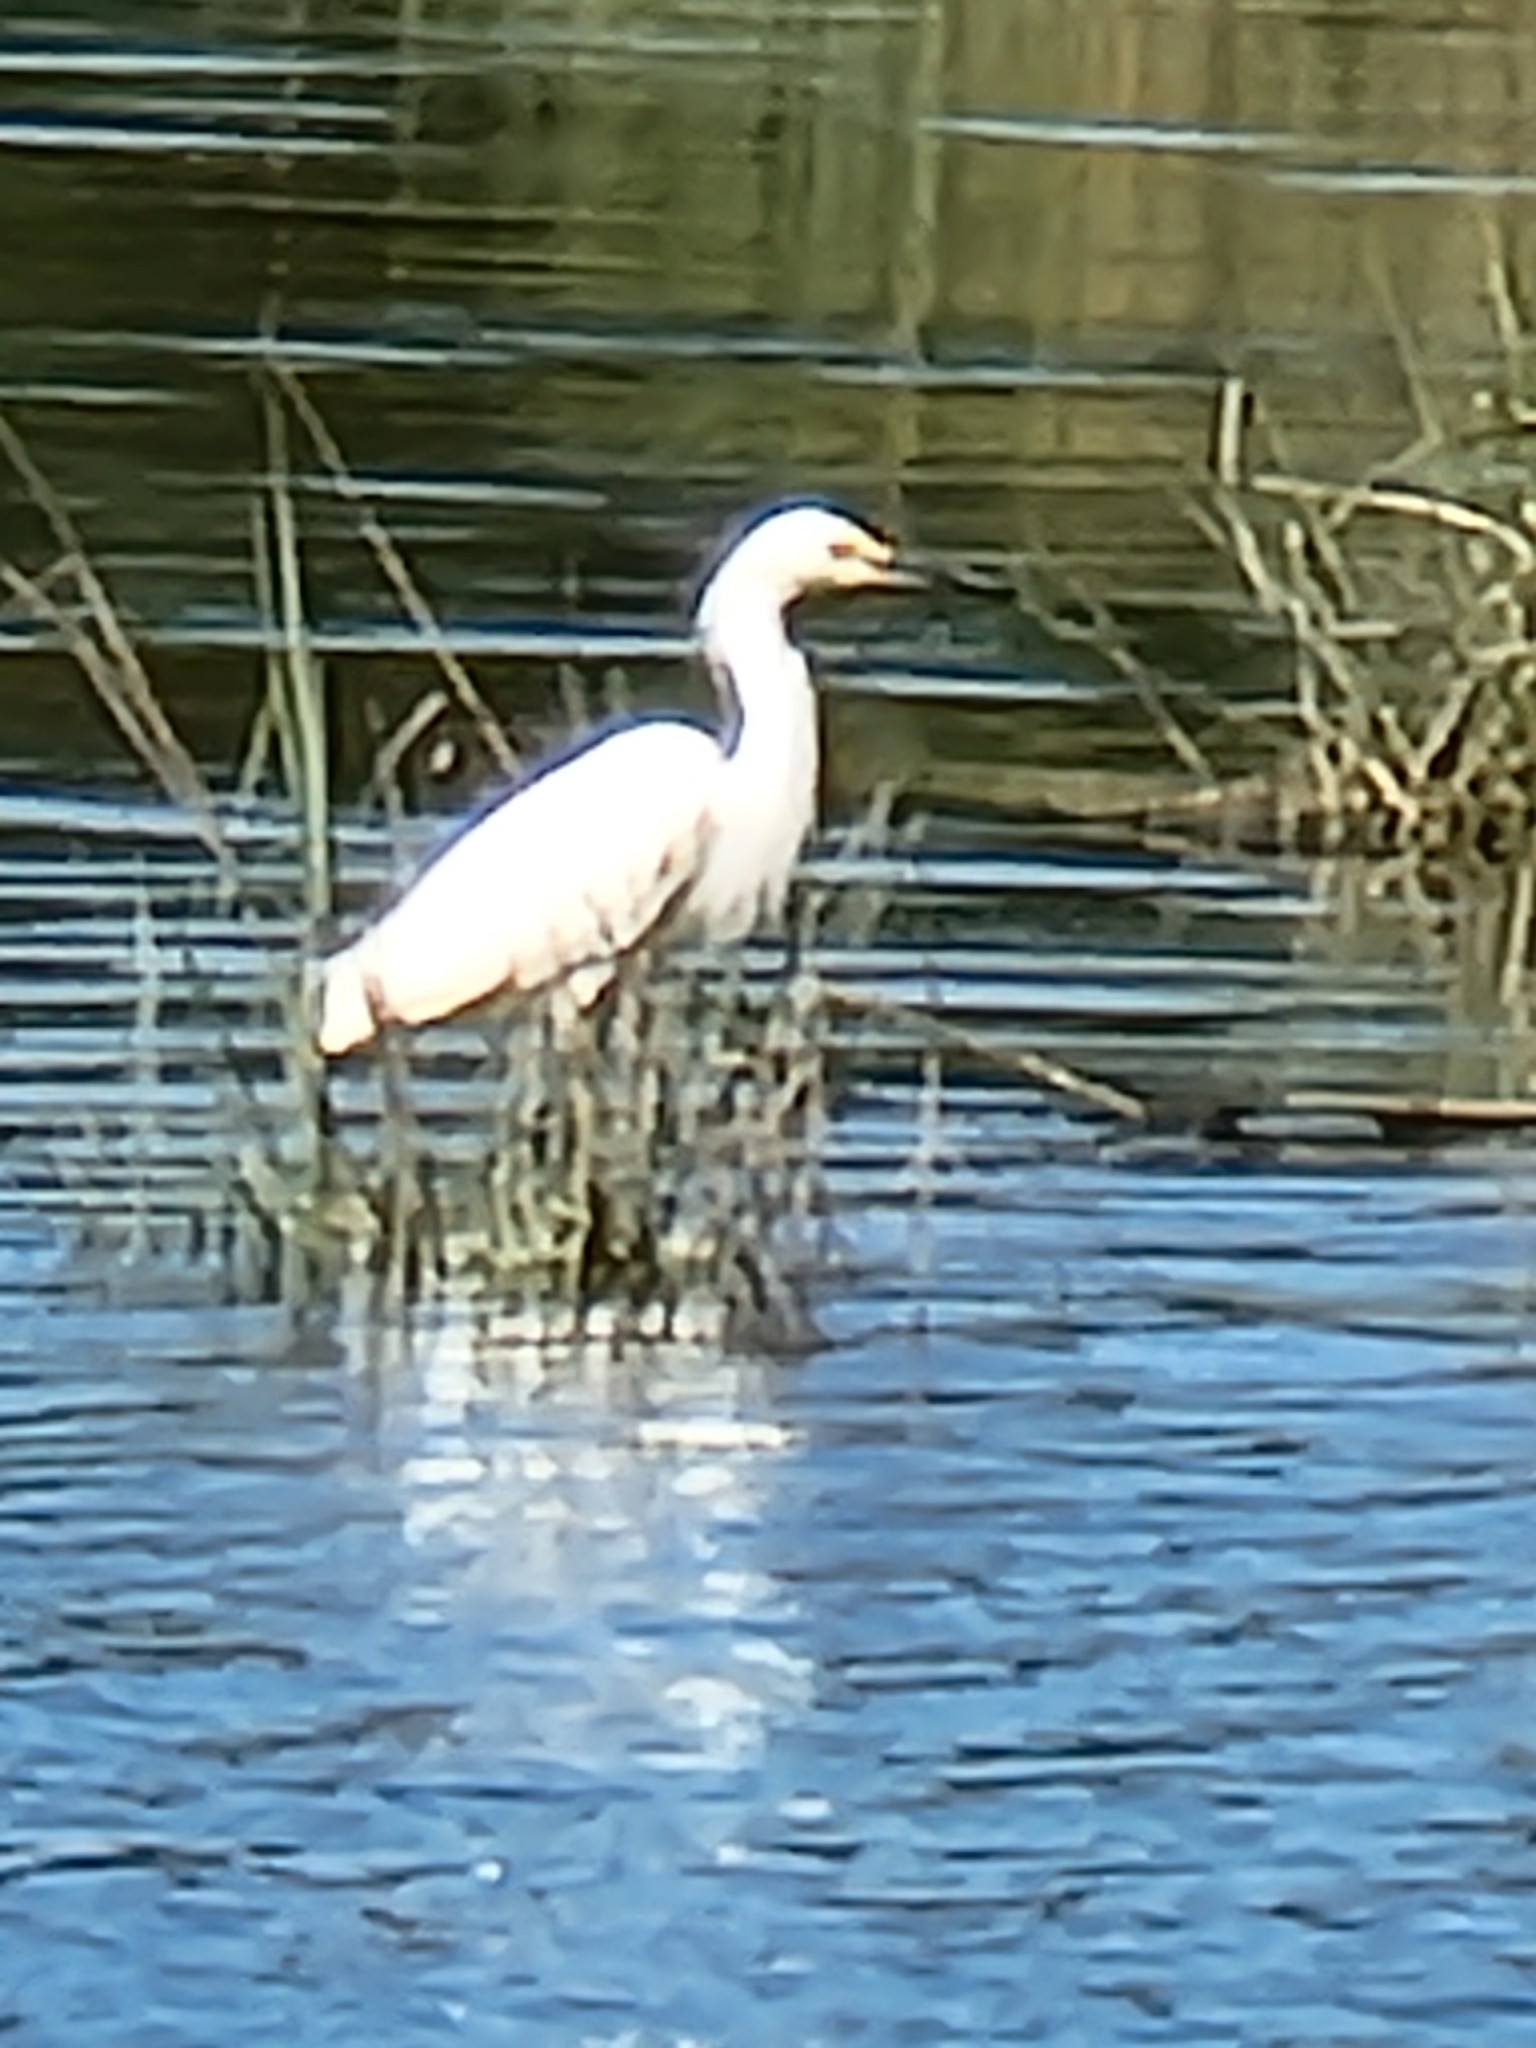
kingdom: Animalia
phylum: Chordata
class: Aves
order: Pelecaniformes
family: Ardeidae
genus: Egretta
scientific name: Egretta thula
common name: Snowy egret
